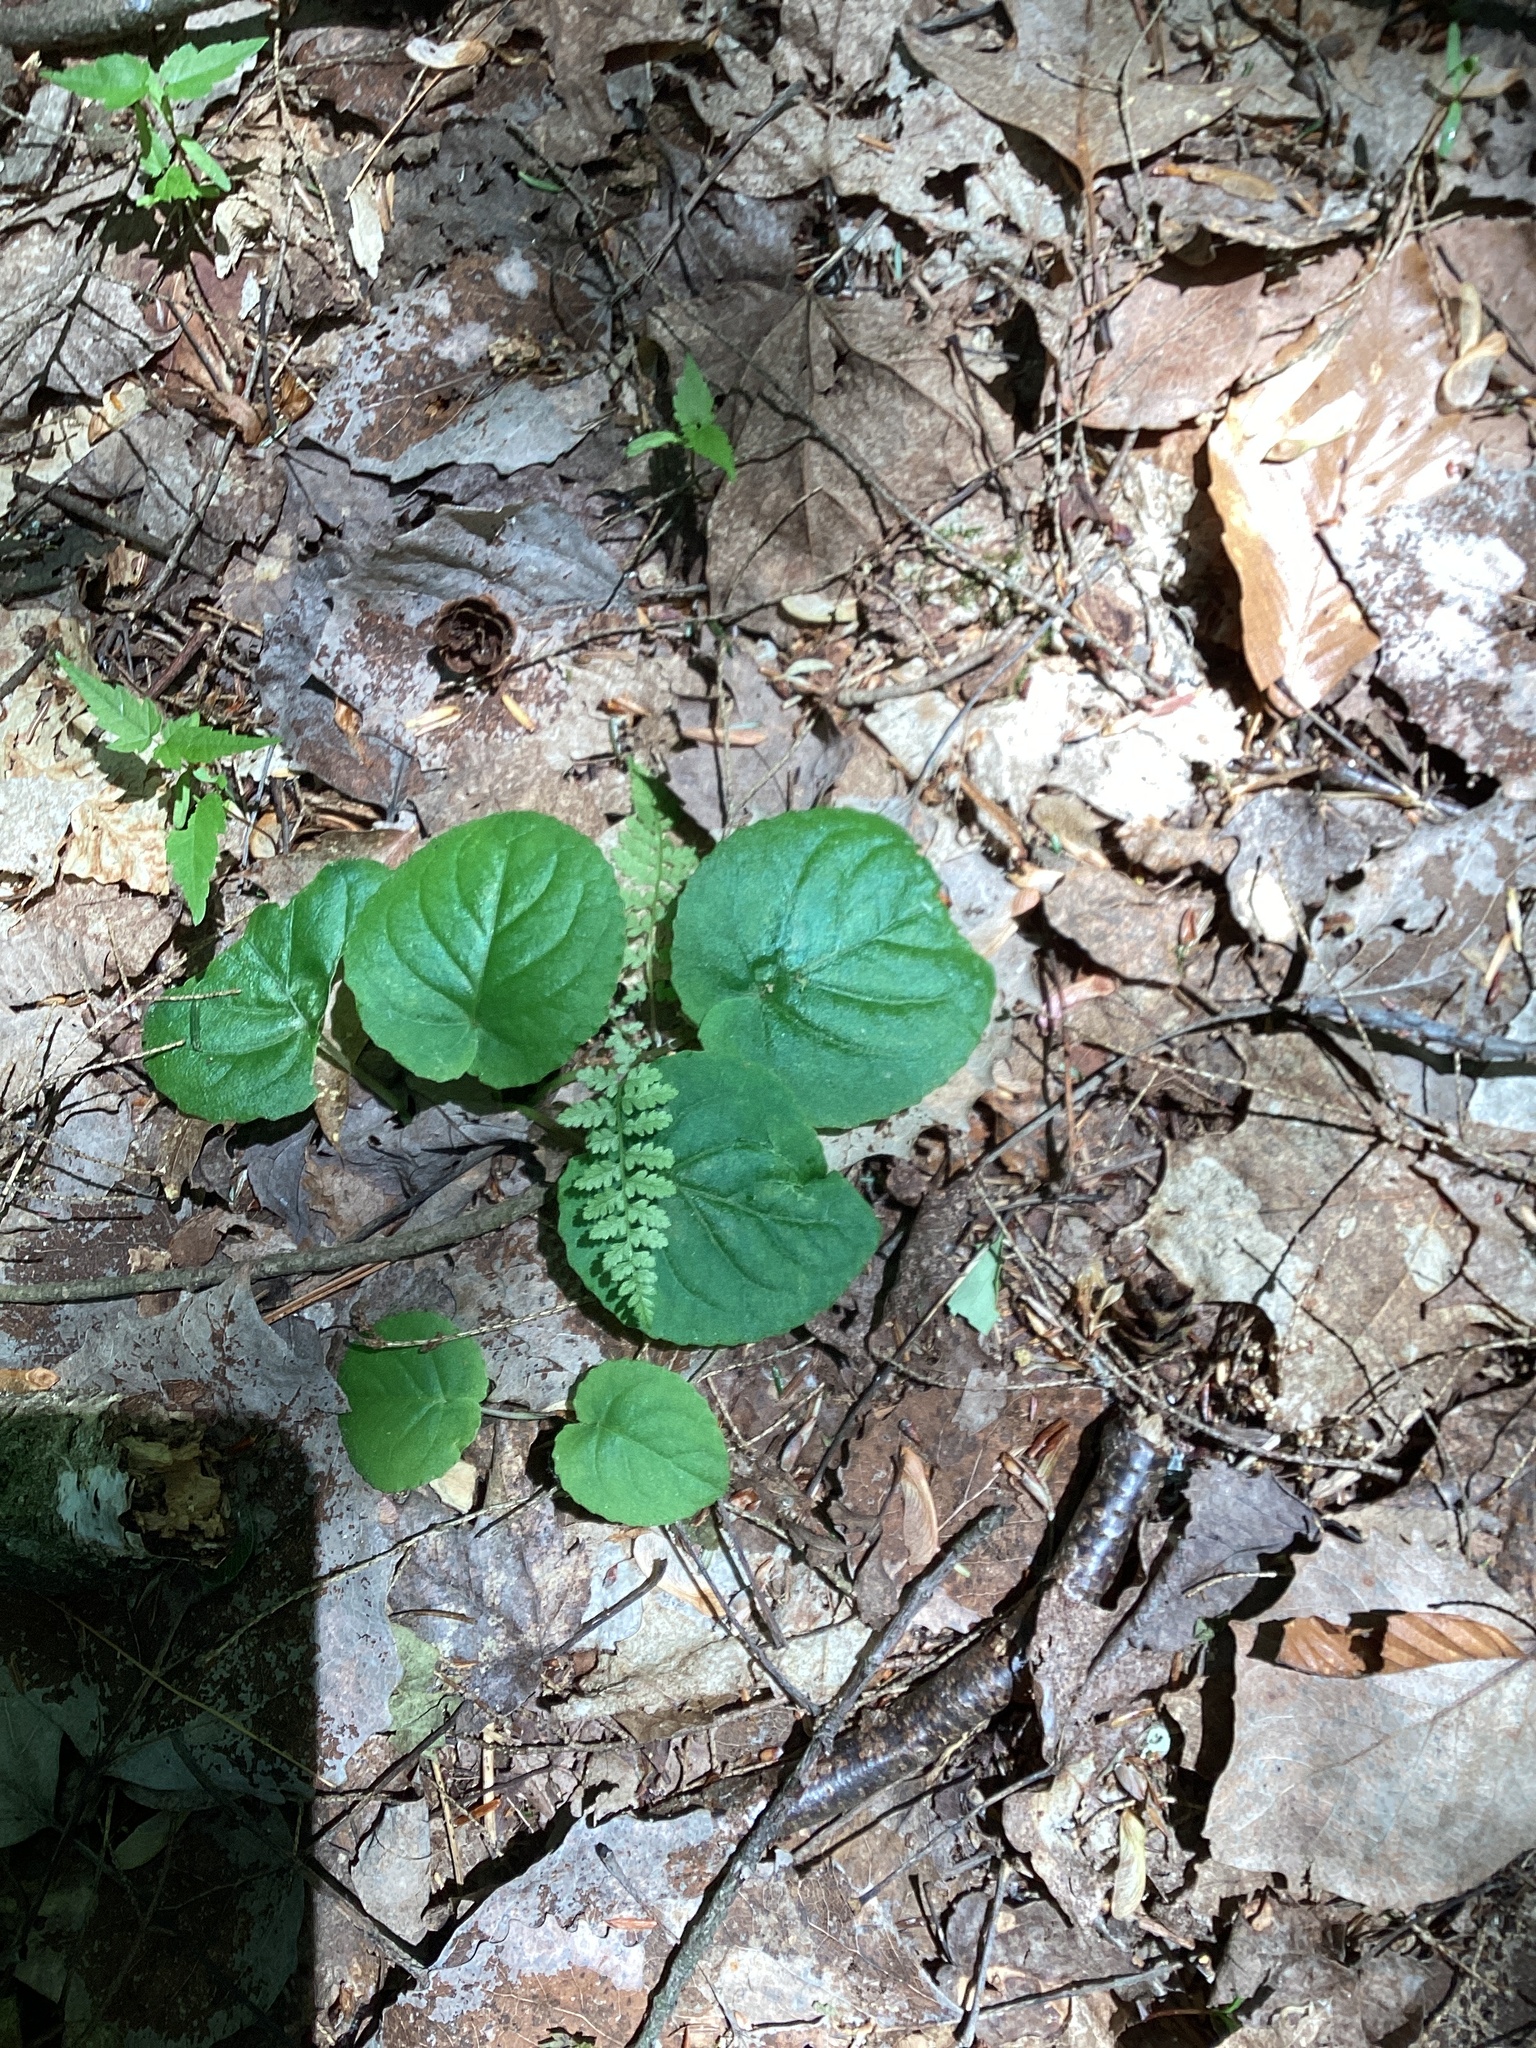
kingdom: Plantae
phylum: Tracheophyta
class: Magnoliopsida
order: Malpighiales
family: Violaceae
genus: Viola
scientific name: Viola rotundifolia
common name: Early yellow violet
